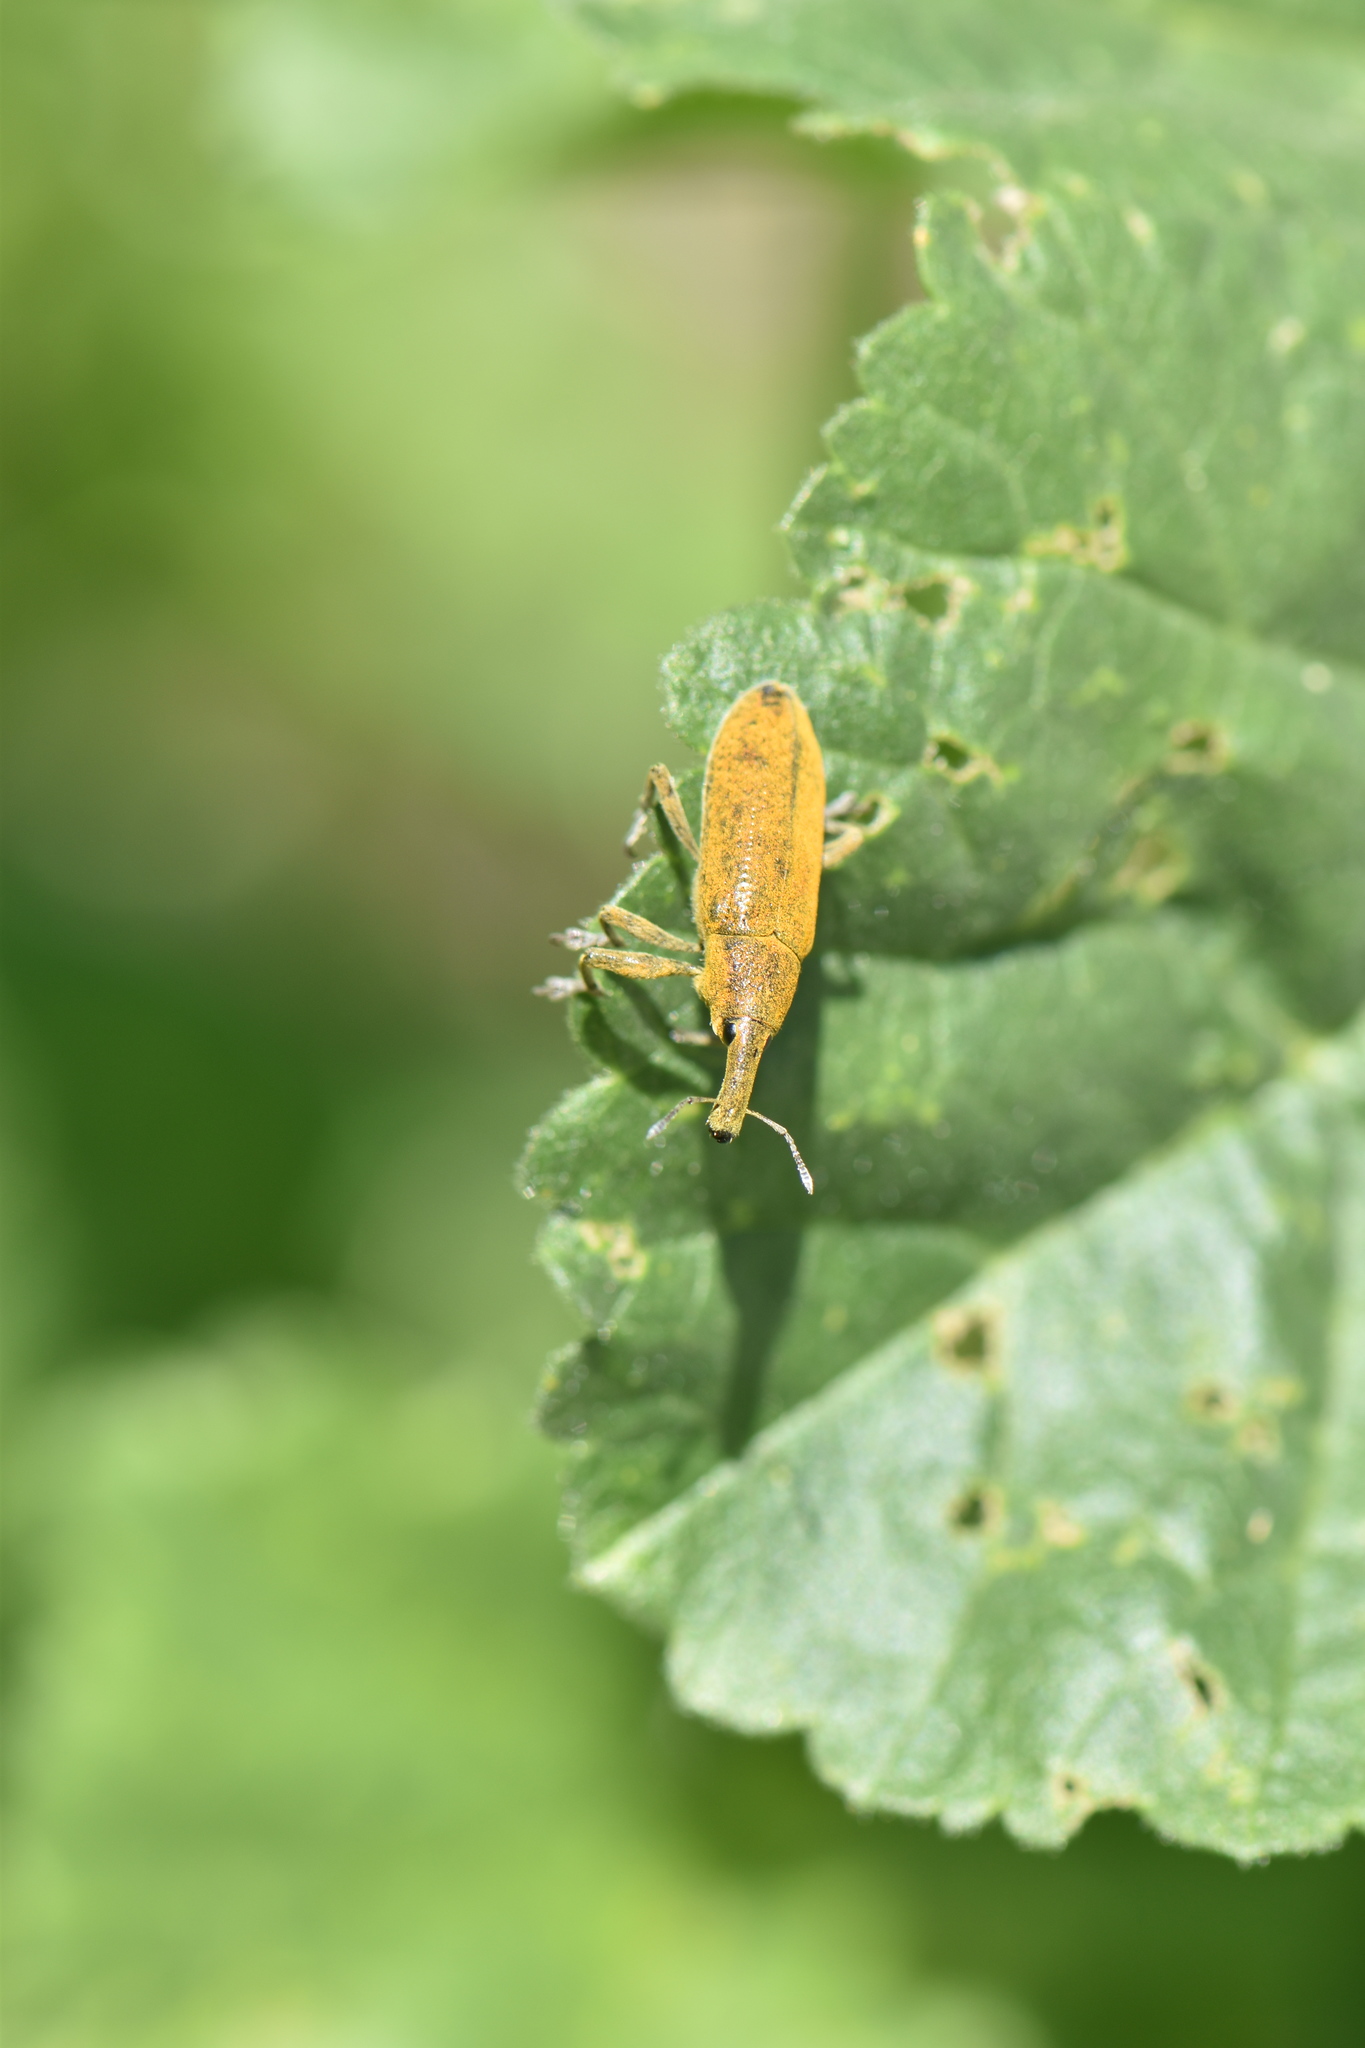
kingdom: Animalia
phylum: Arthropoda
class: Insecta
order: Coleoptera
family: Curculionidae
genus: Lixus
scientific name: Lixus pulverulentus
